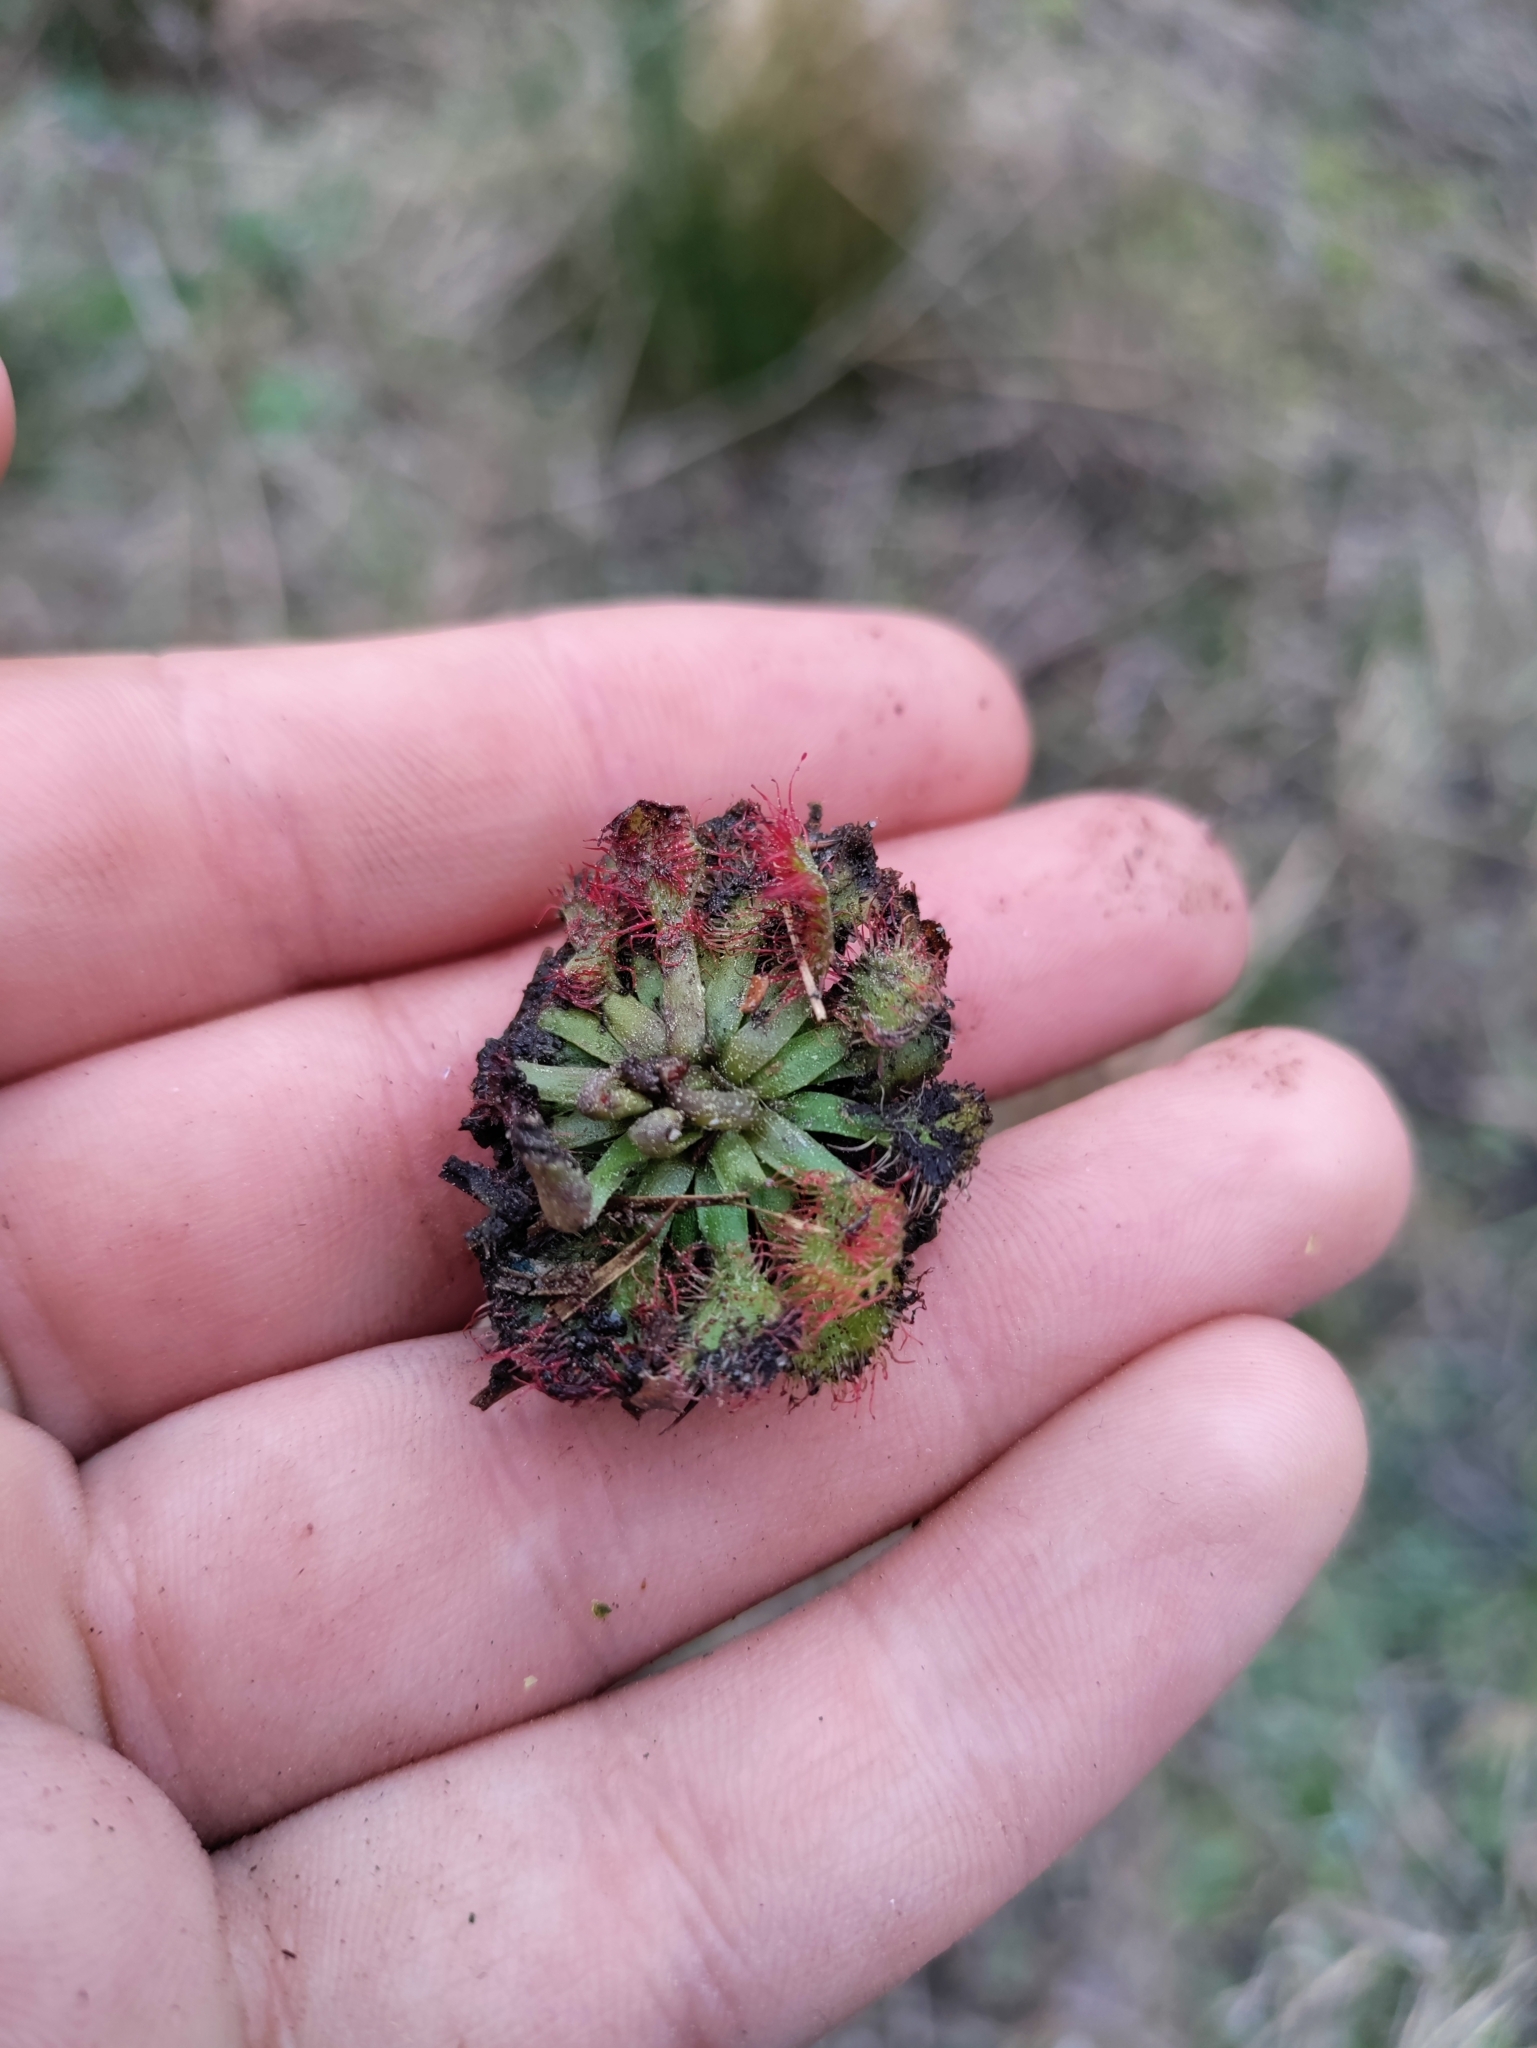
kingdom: Plantae
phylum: Tracheophyta
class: Magnoliopsida
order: Caryophyllales
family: Droseraceae
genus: Drosera
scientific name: Drosera capillaris
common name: Pink sundew
